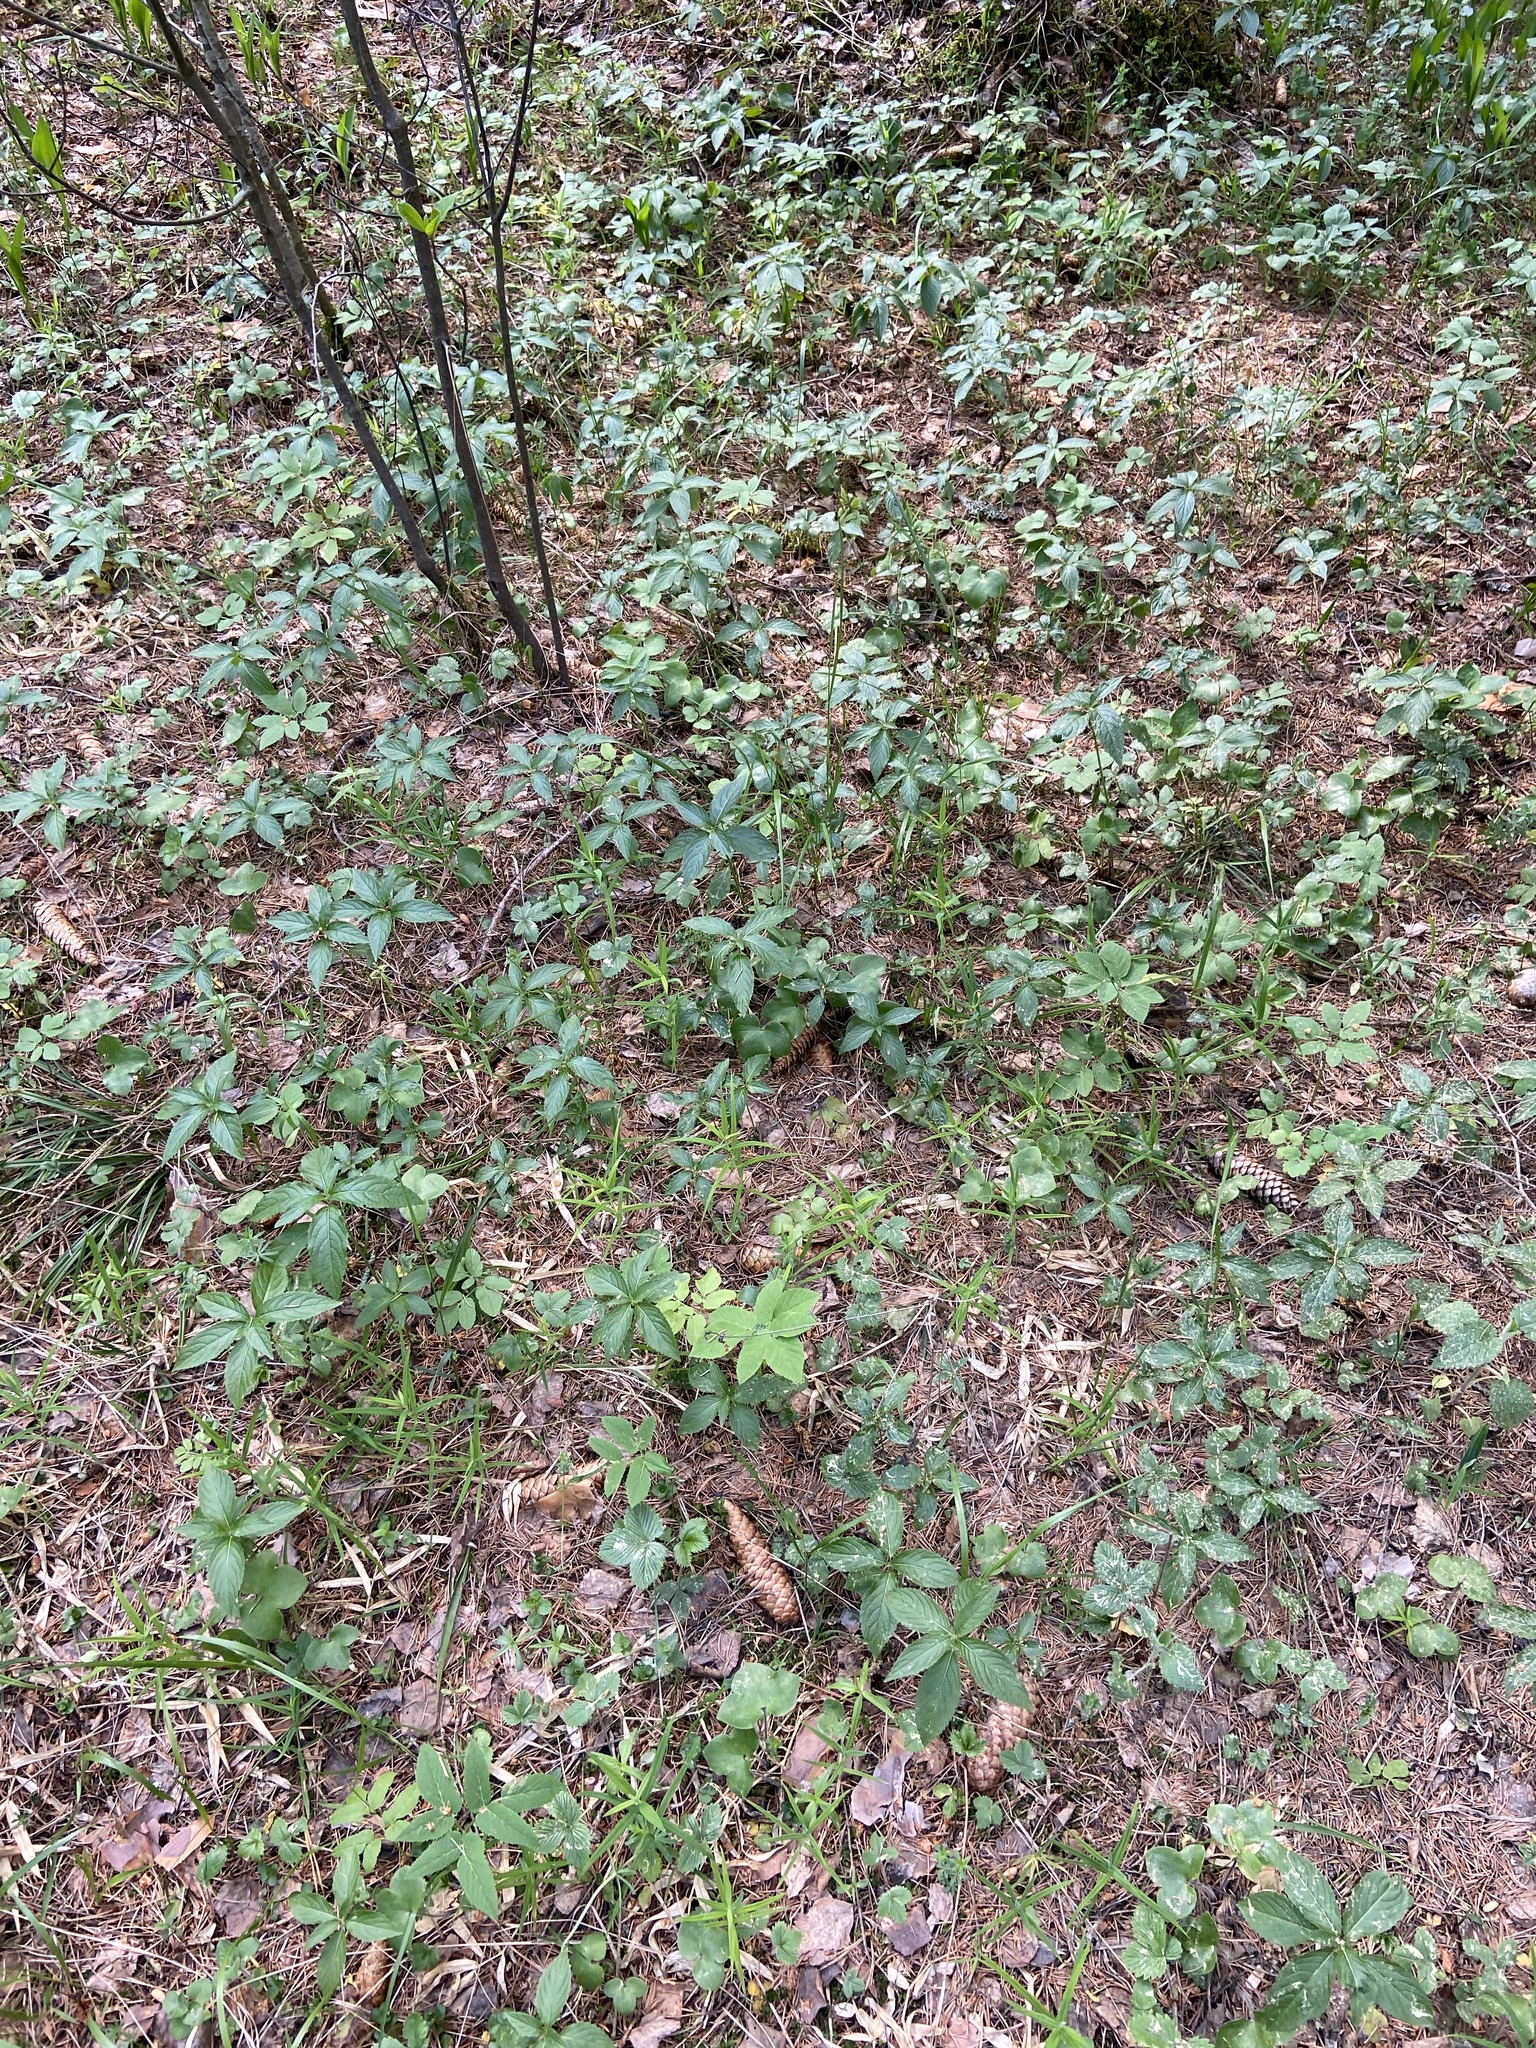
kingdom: Plantae
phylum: Tracheophyta
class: Magnoliopsida
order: Malpighiales
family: Euphorbiaceae
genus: Mercurialis
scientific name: Mercurialis perennis
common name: Dog mercury
